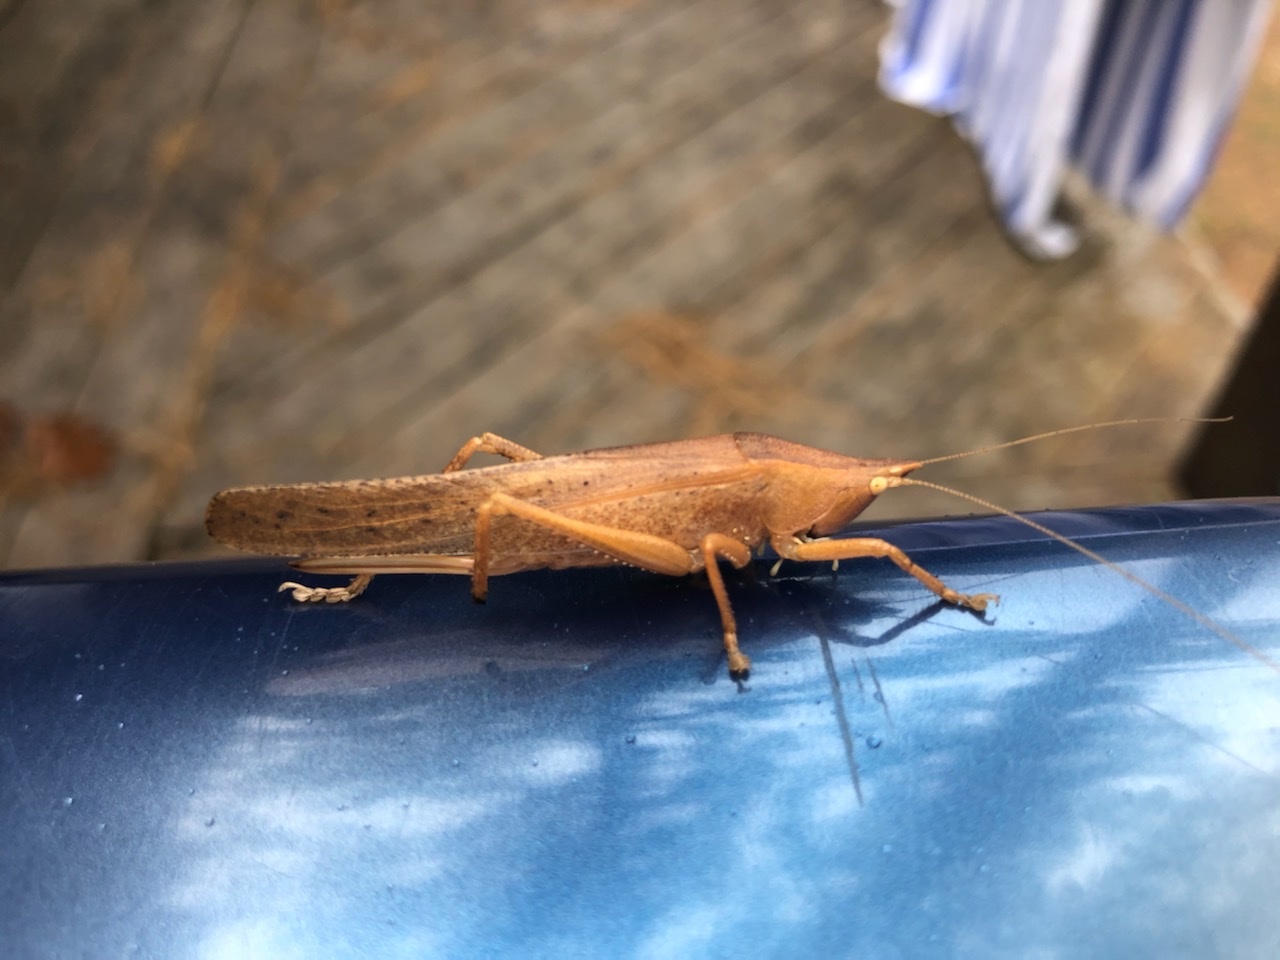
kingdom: Animalia
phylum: Arthropoda
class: Insecta
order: Orthoptera
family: Tettigoniidae
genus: Pyrgocorypha
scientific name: Pyrgocorypha uncinata
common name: Hook-faced conehead
